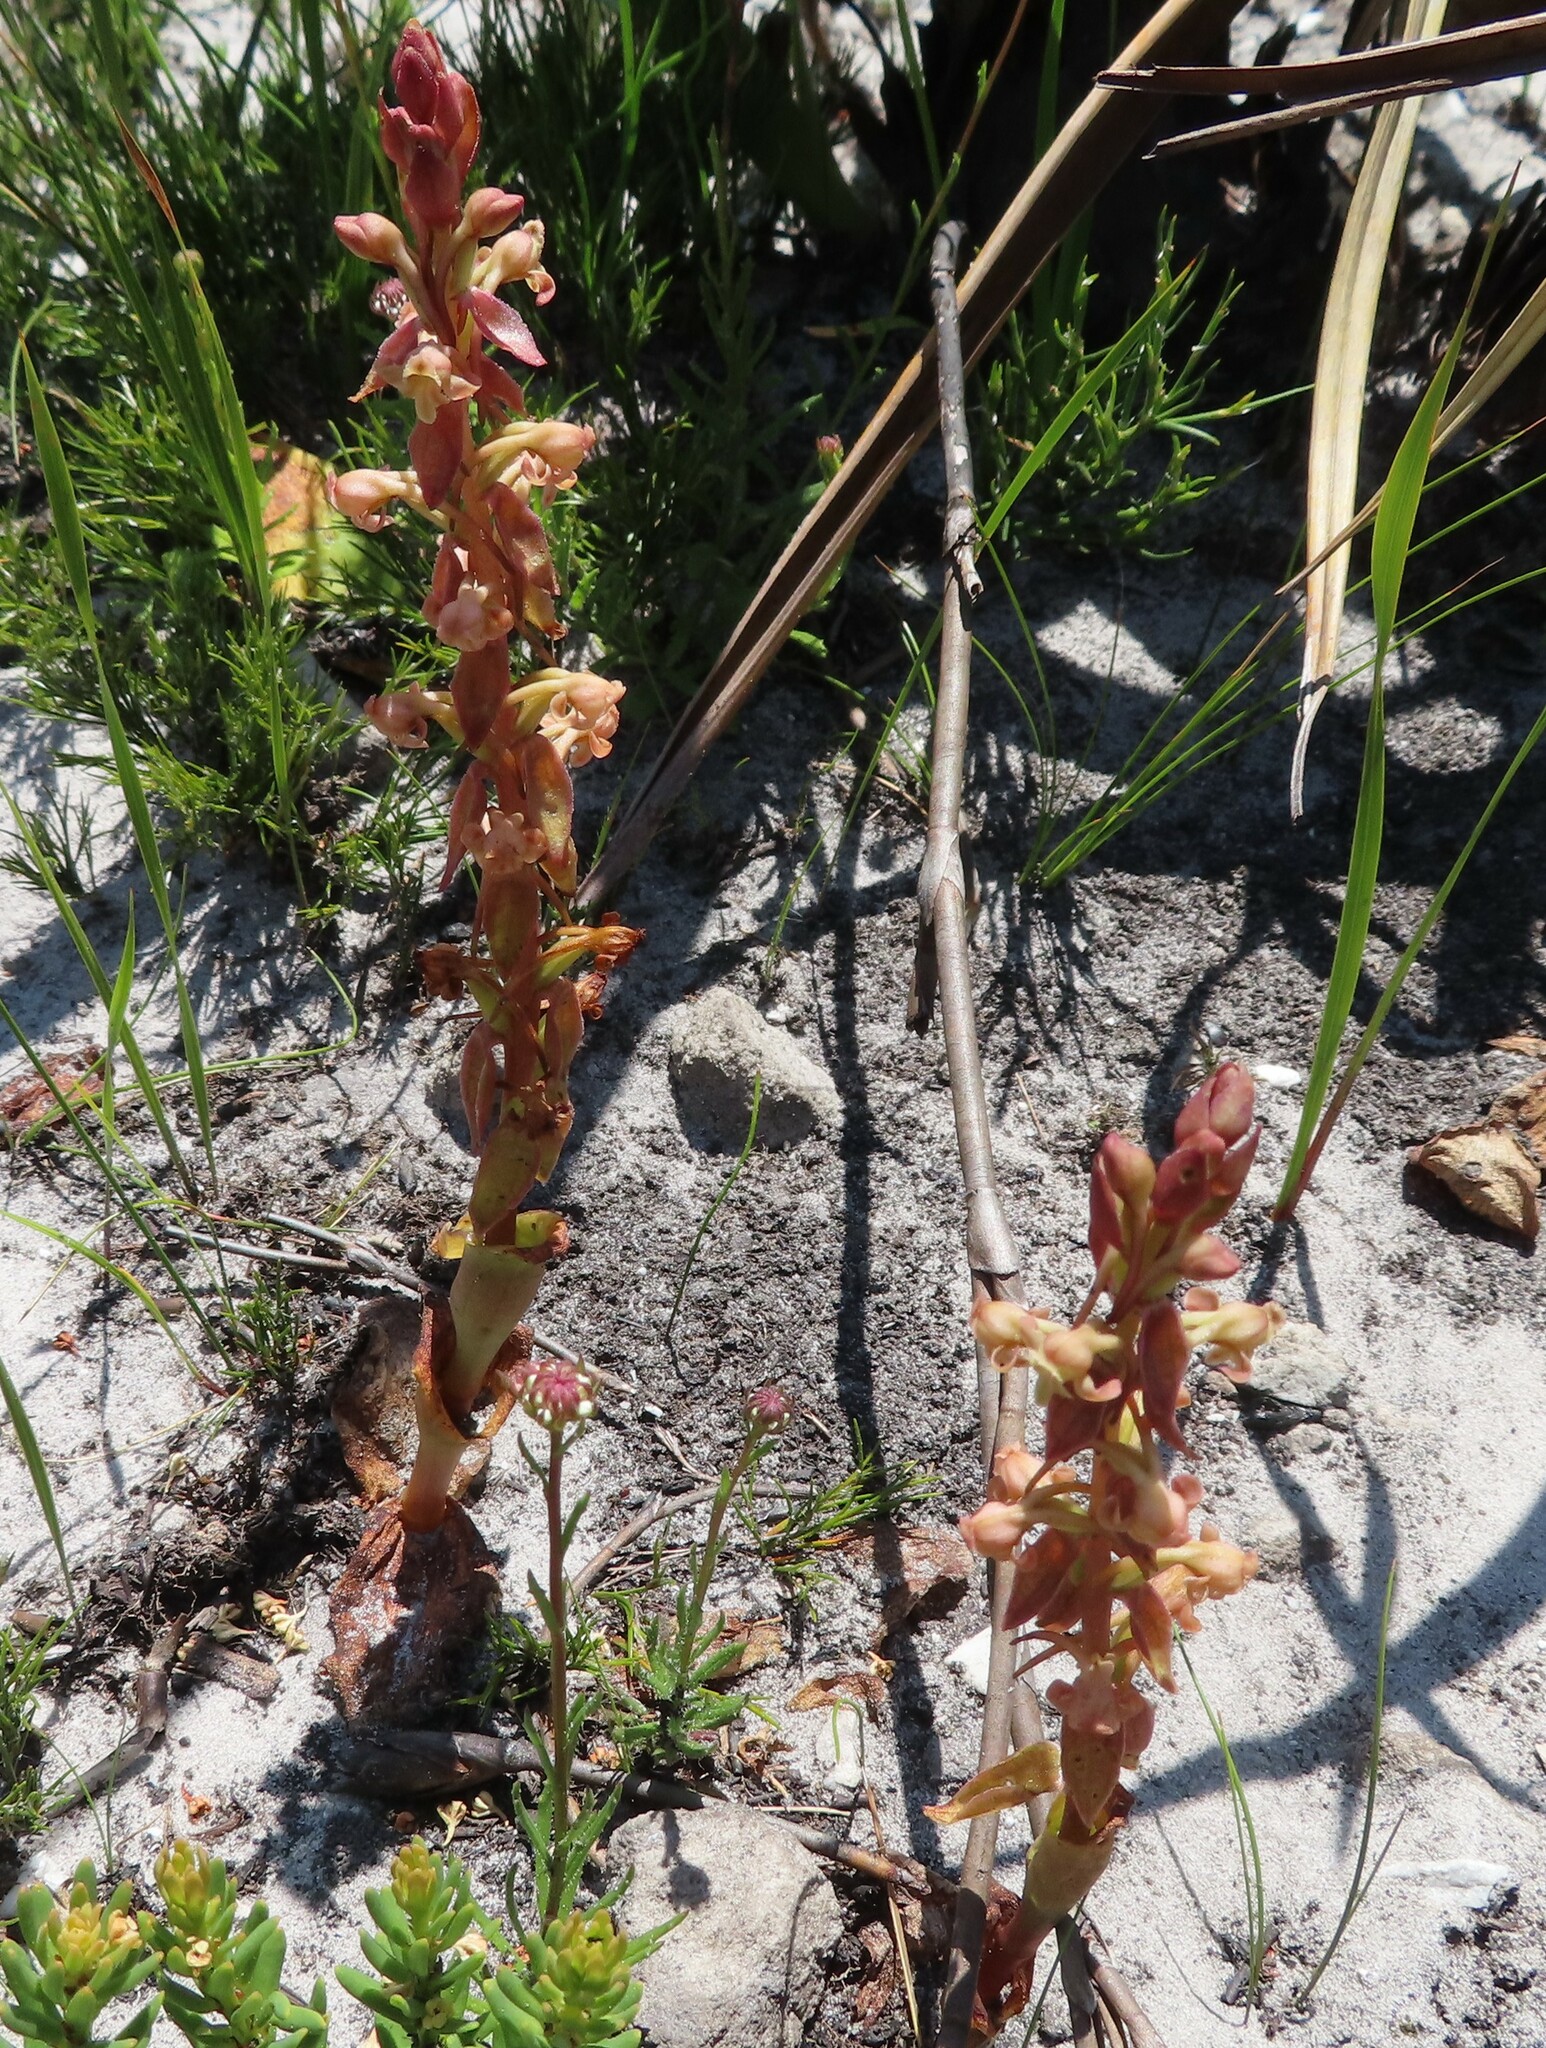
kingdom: Plantae
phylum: Tracheophyta
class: Liliopsida
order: Asparagales
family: Orchidaceae
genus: Satyrium
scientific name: Satyrium humile
